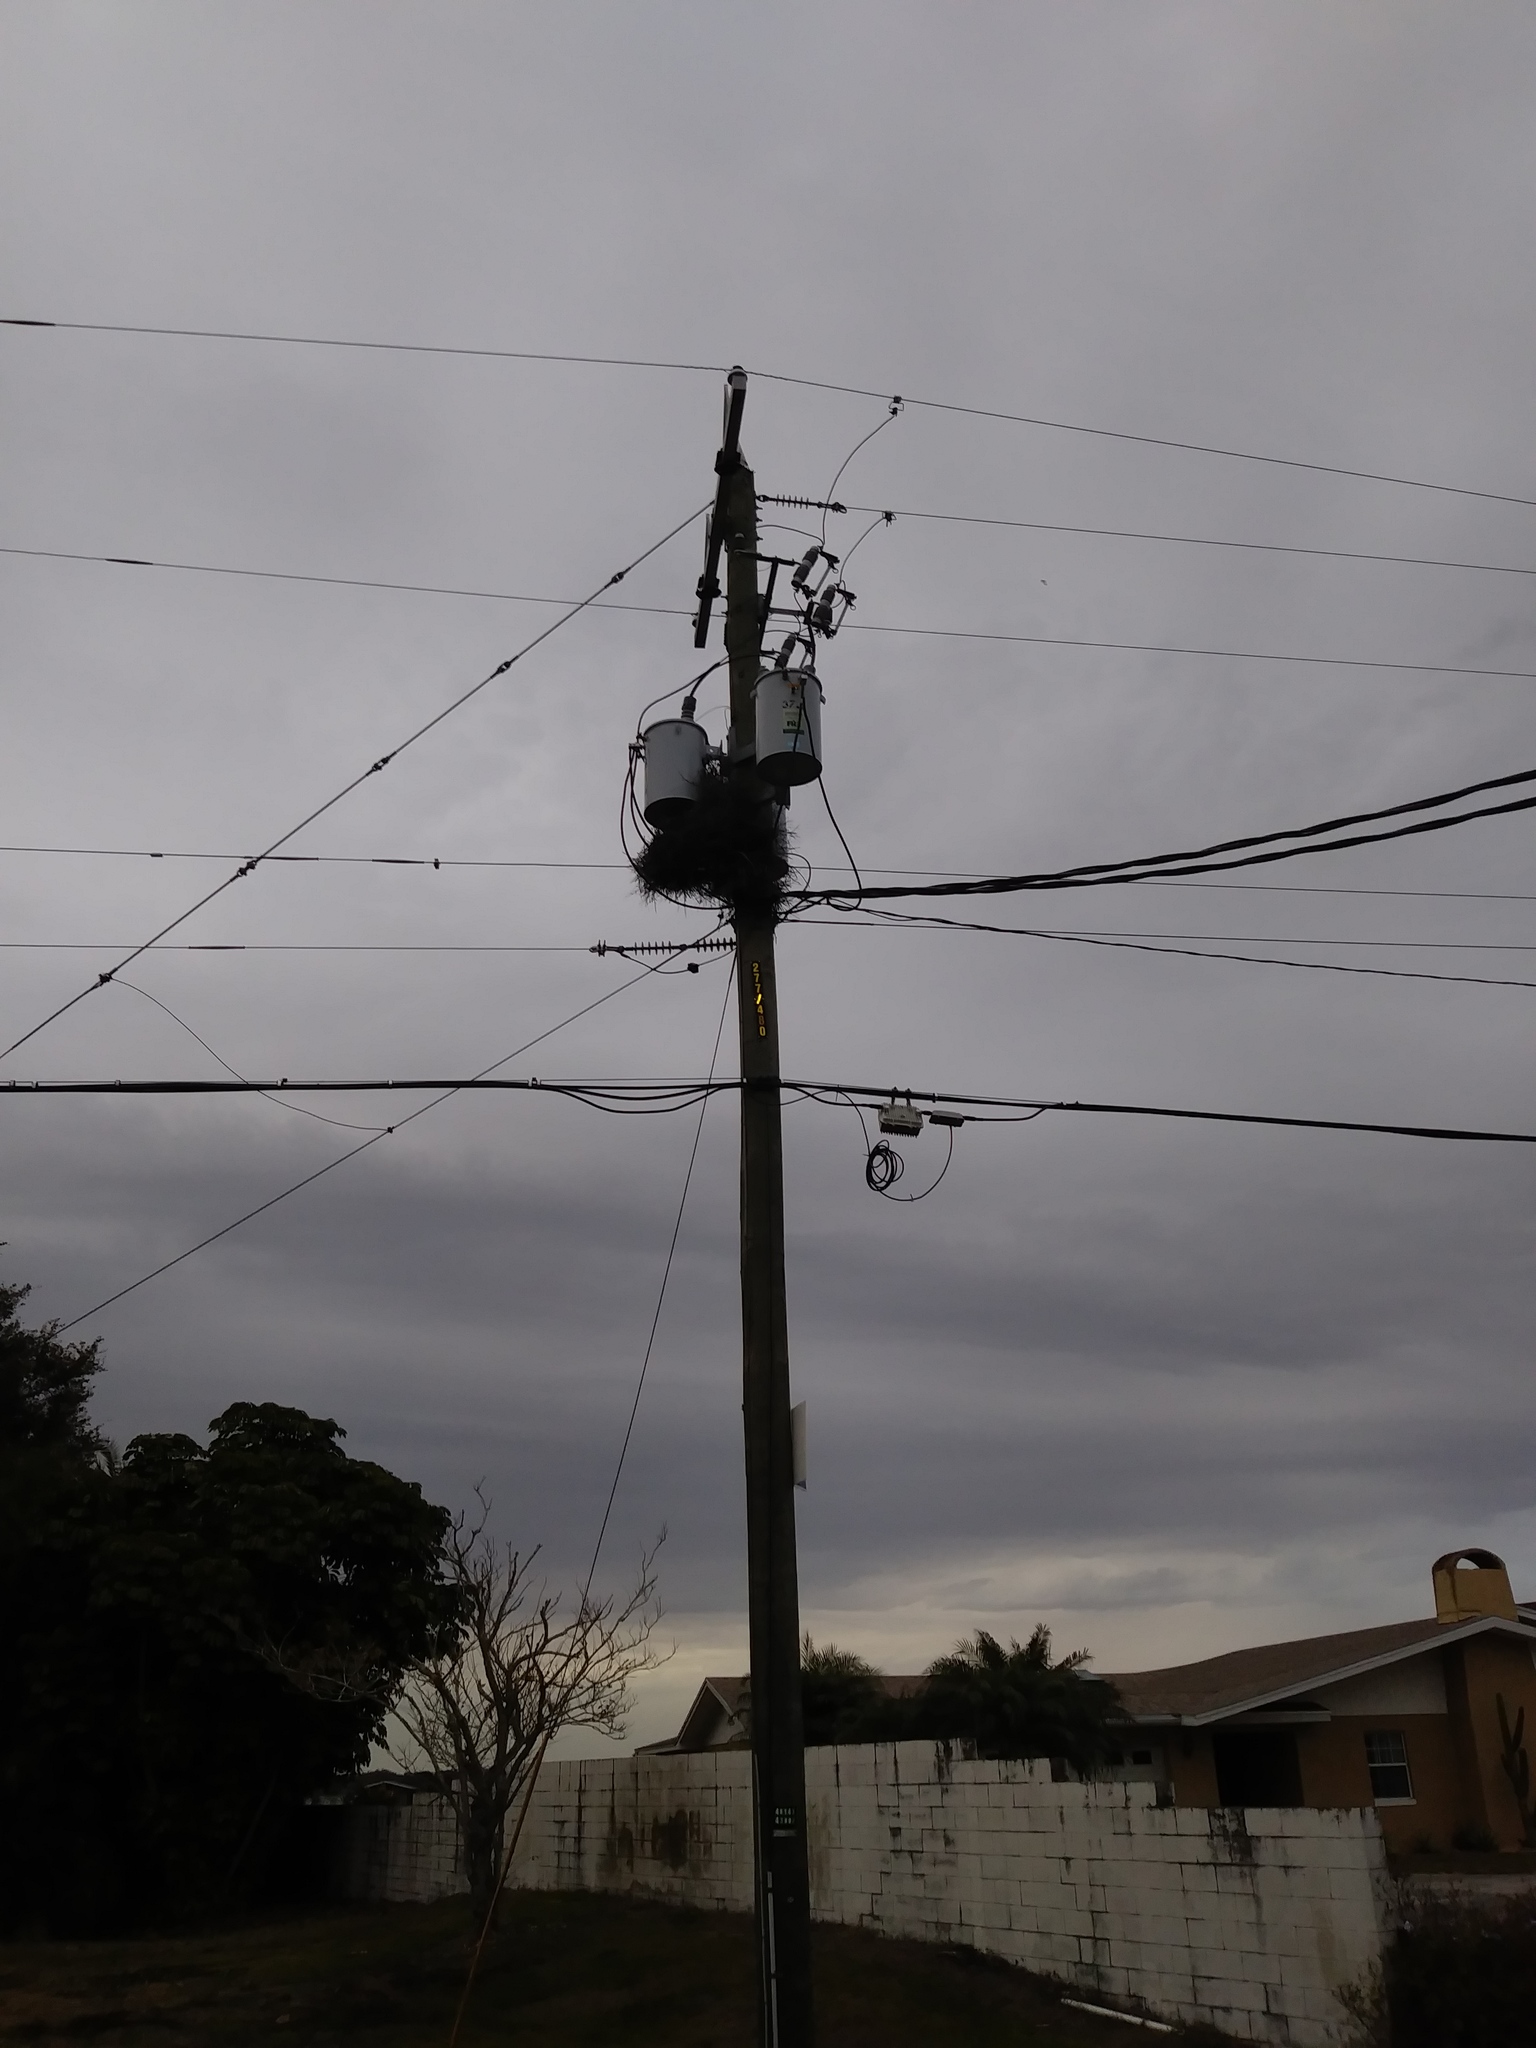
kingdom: Animalia
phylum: Chordata
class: Aves
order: Psittaciformes
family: Psittacidae
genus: Myiopsitta
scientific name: Myiopsitta monachus
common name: Monk parakeet
